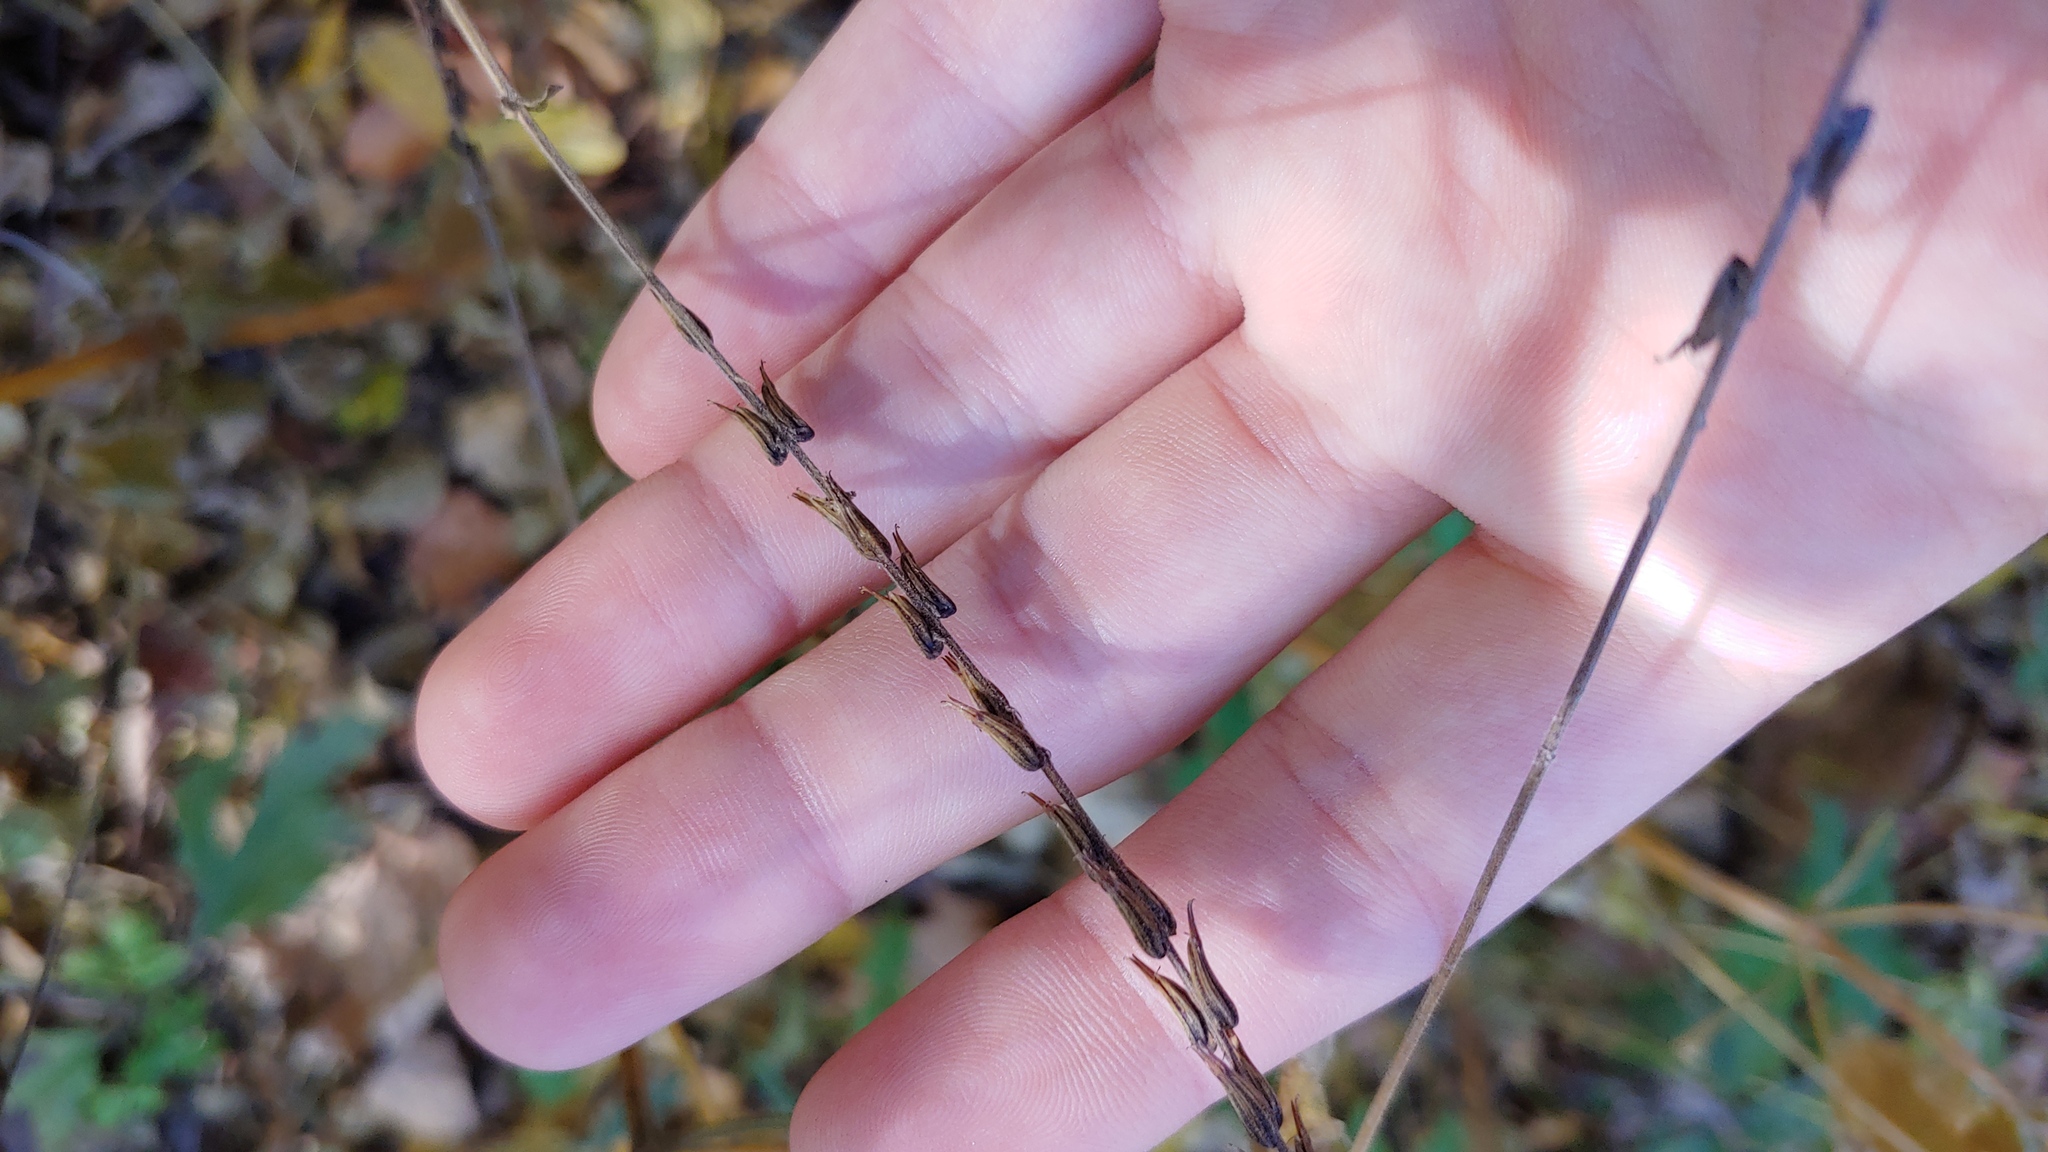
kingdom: Plantae
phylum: Tracheophyta
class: Magnoliopsida
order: Lamiales
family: Phrymaceae
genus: Phryma
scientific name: Phryma leptostachya
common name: American lopseed
